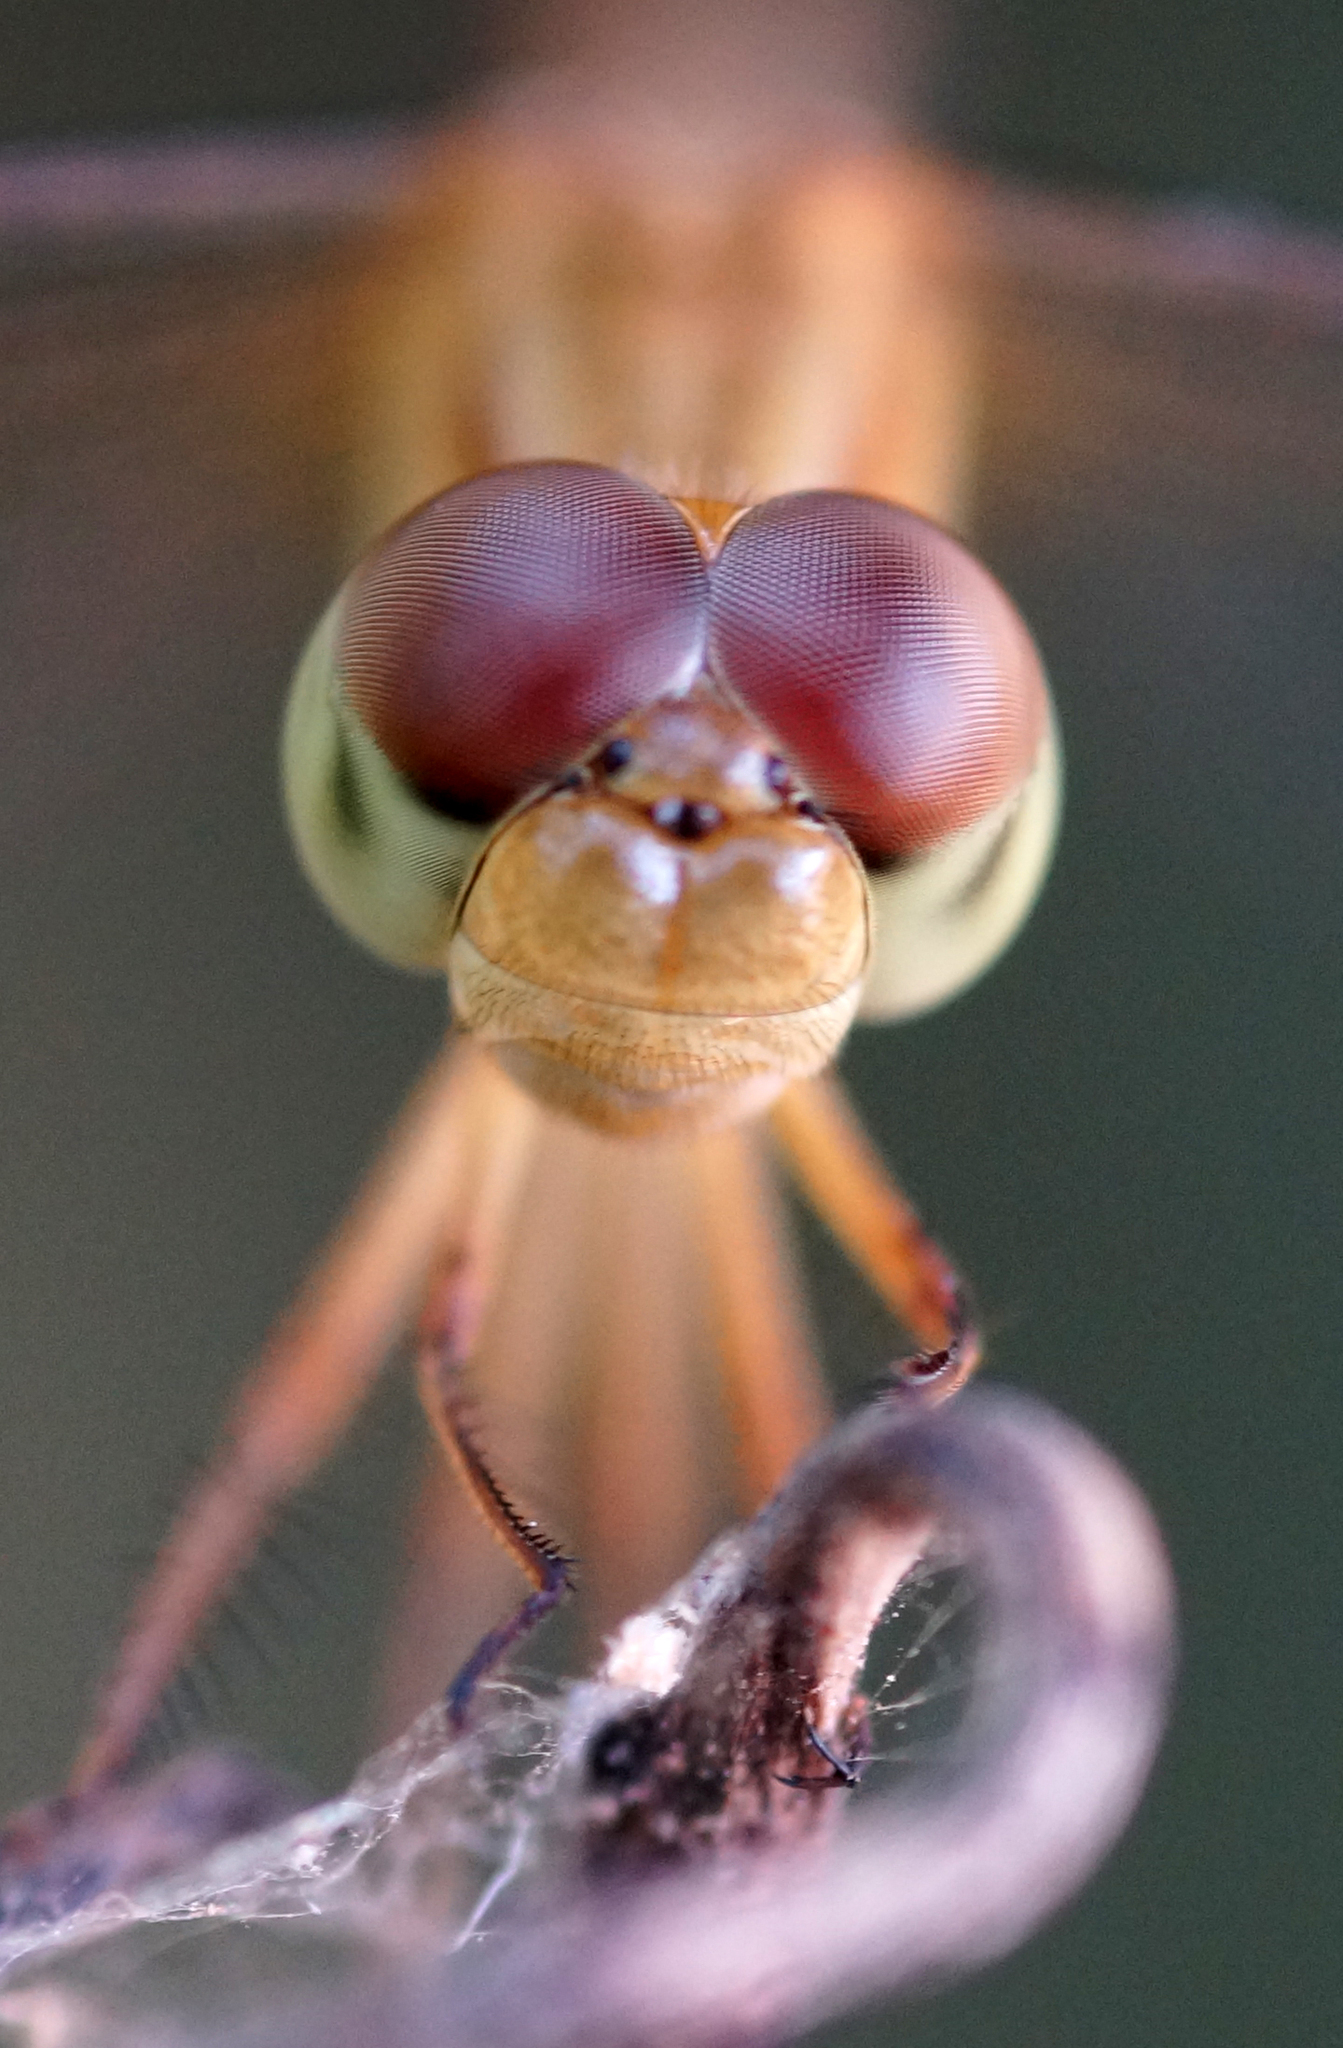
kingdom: Animalia
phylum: Arthropoda
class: Insecta
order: Odonata
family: Libellulidae
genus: Neurothemis
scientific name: Neurothemis intermedia
